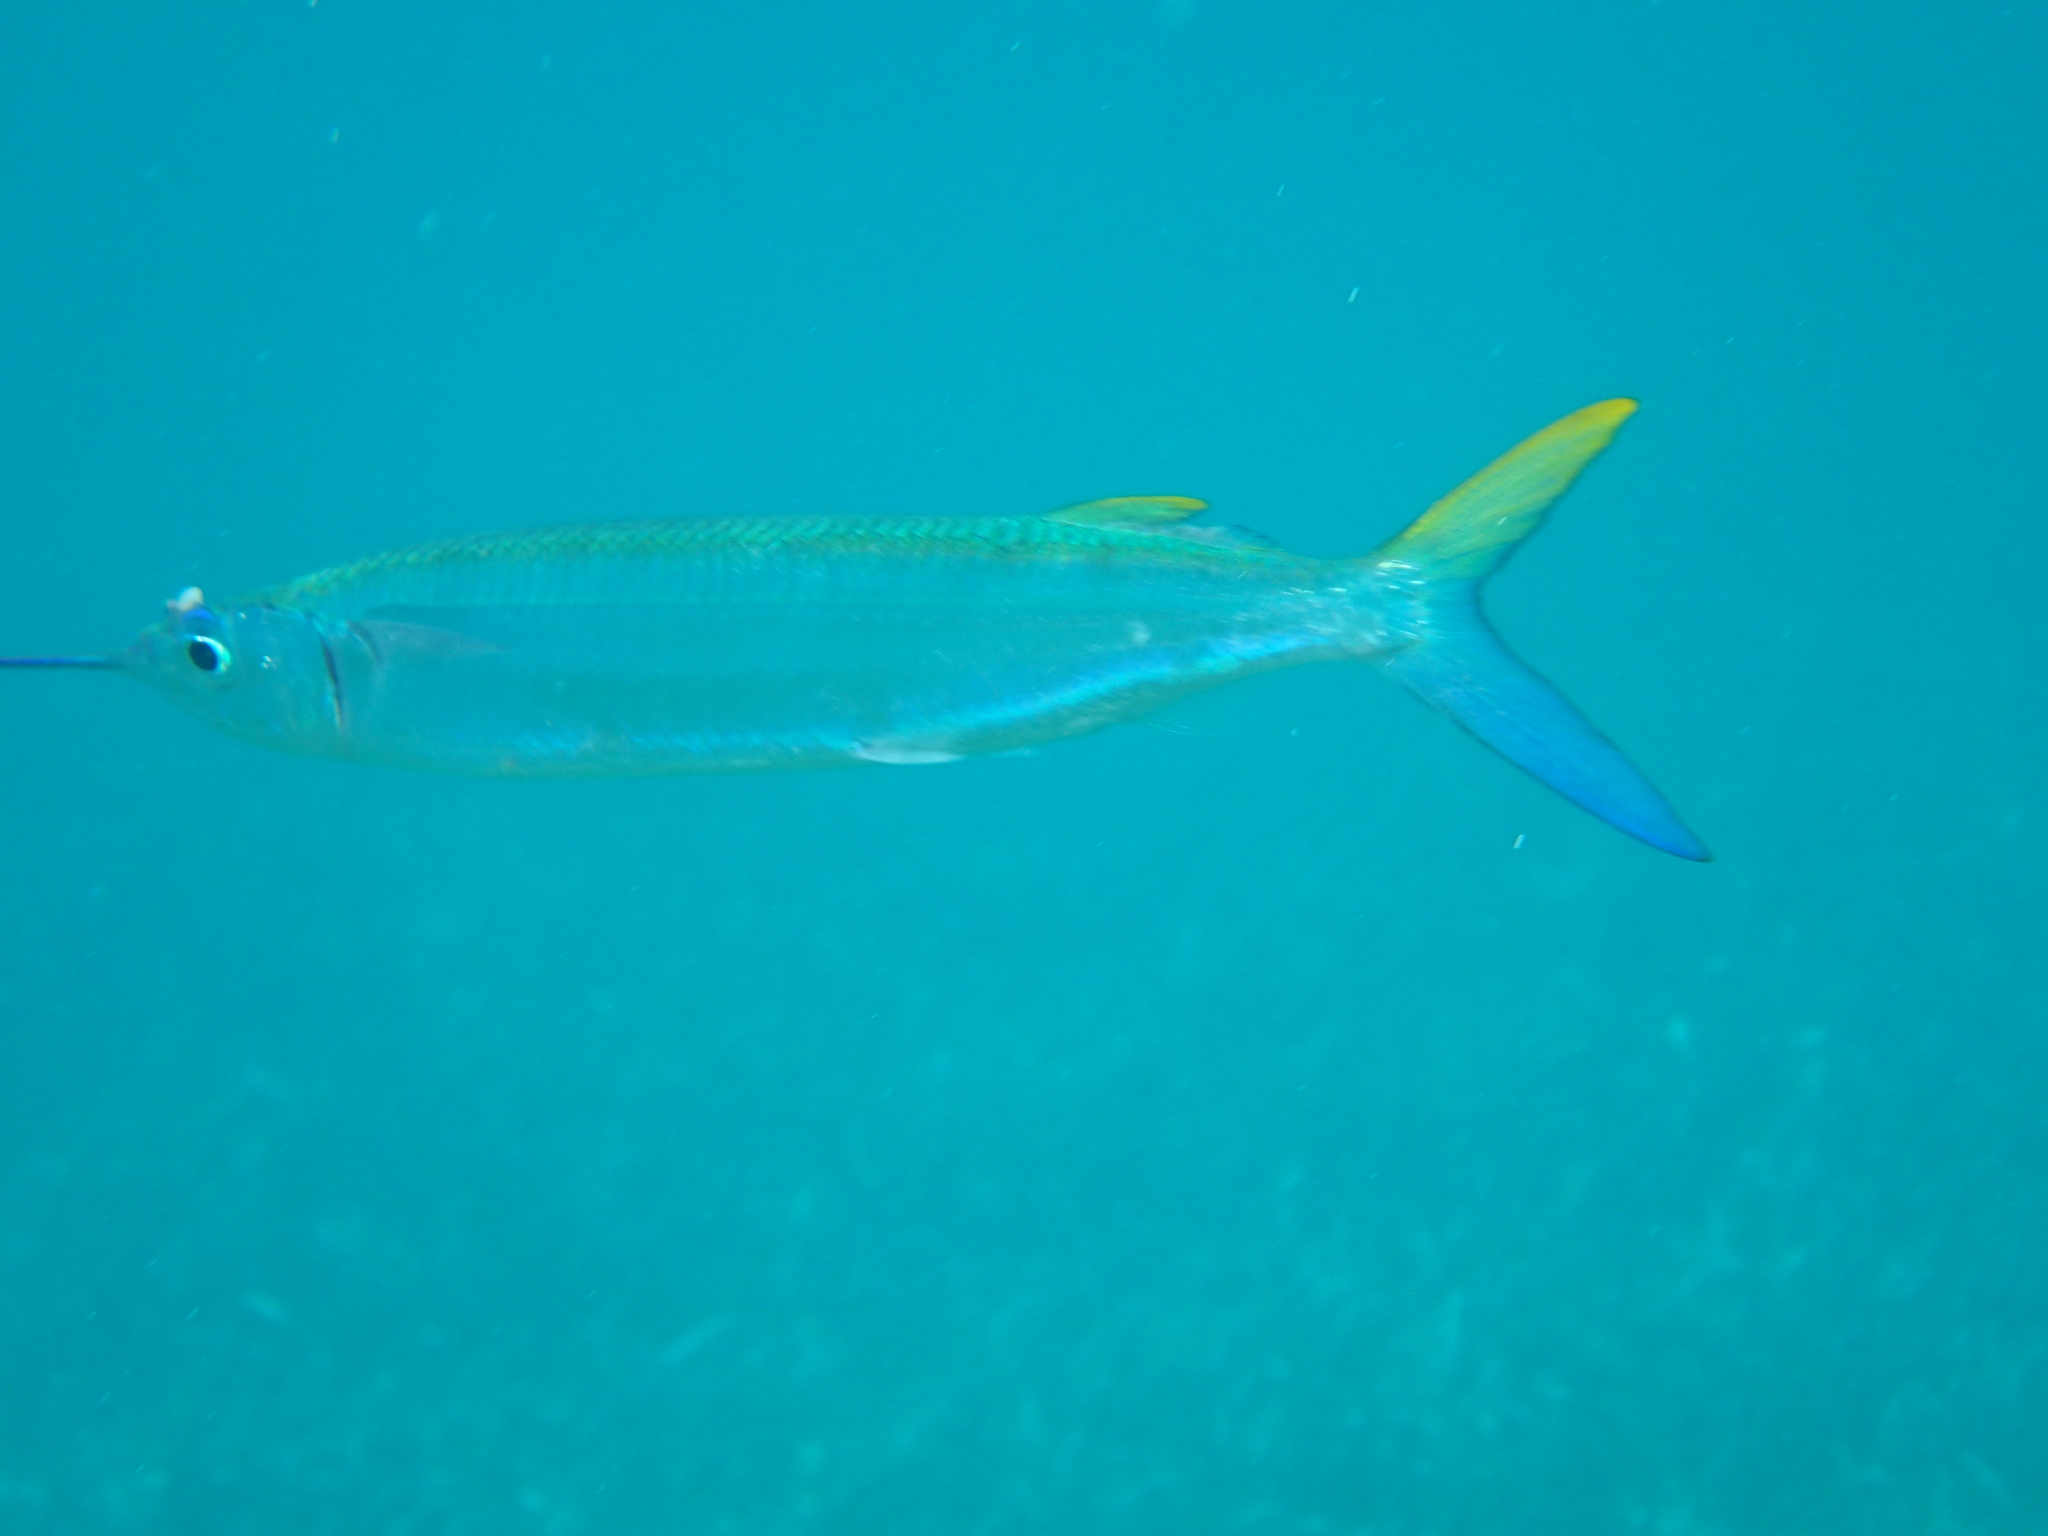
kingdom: Animalia
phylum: Chordata
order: Beloniformes
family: Hemiramphidae
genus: Hemiramphus
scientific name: Hemiramphus brasiliensis
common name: Ballyhoo
